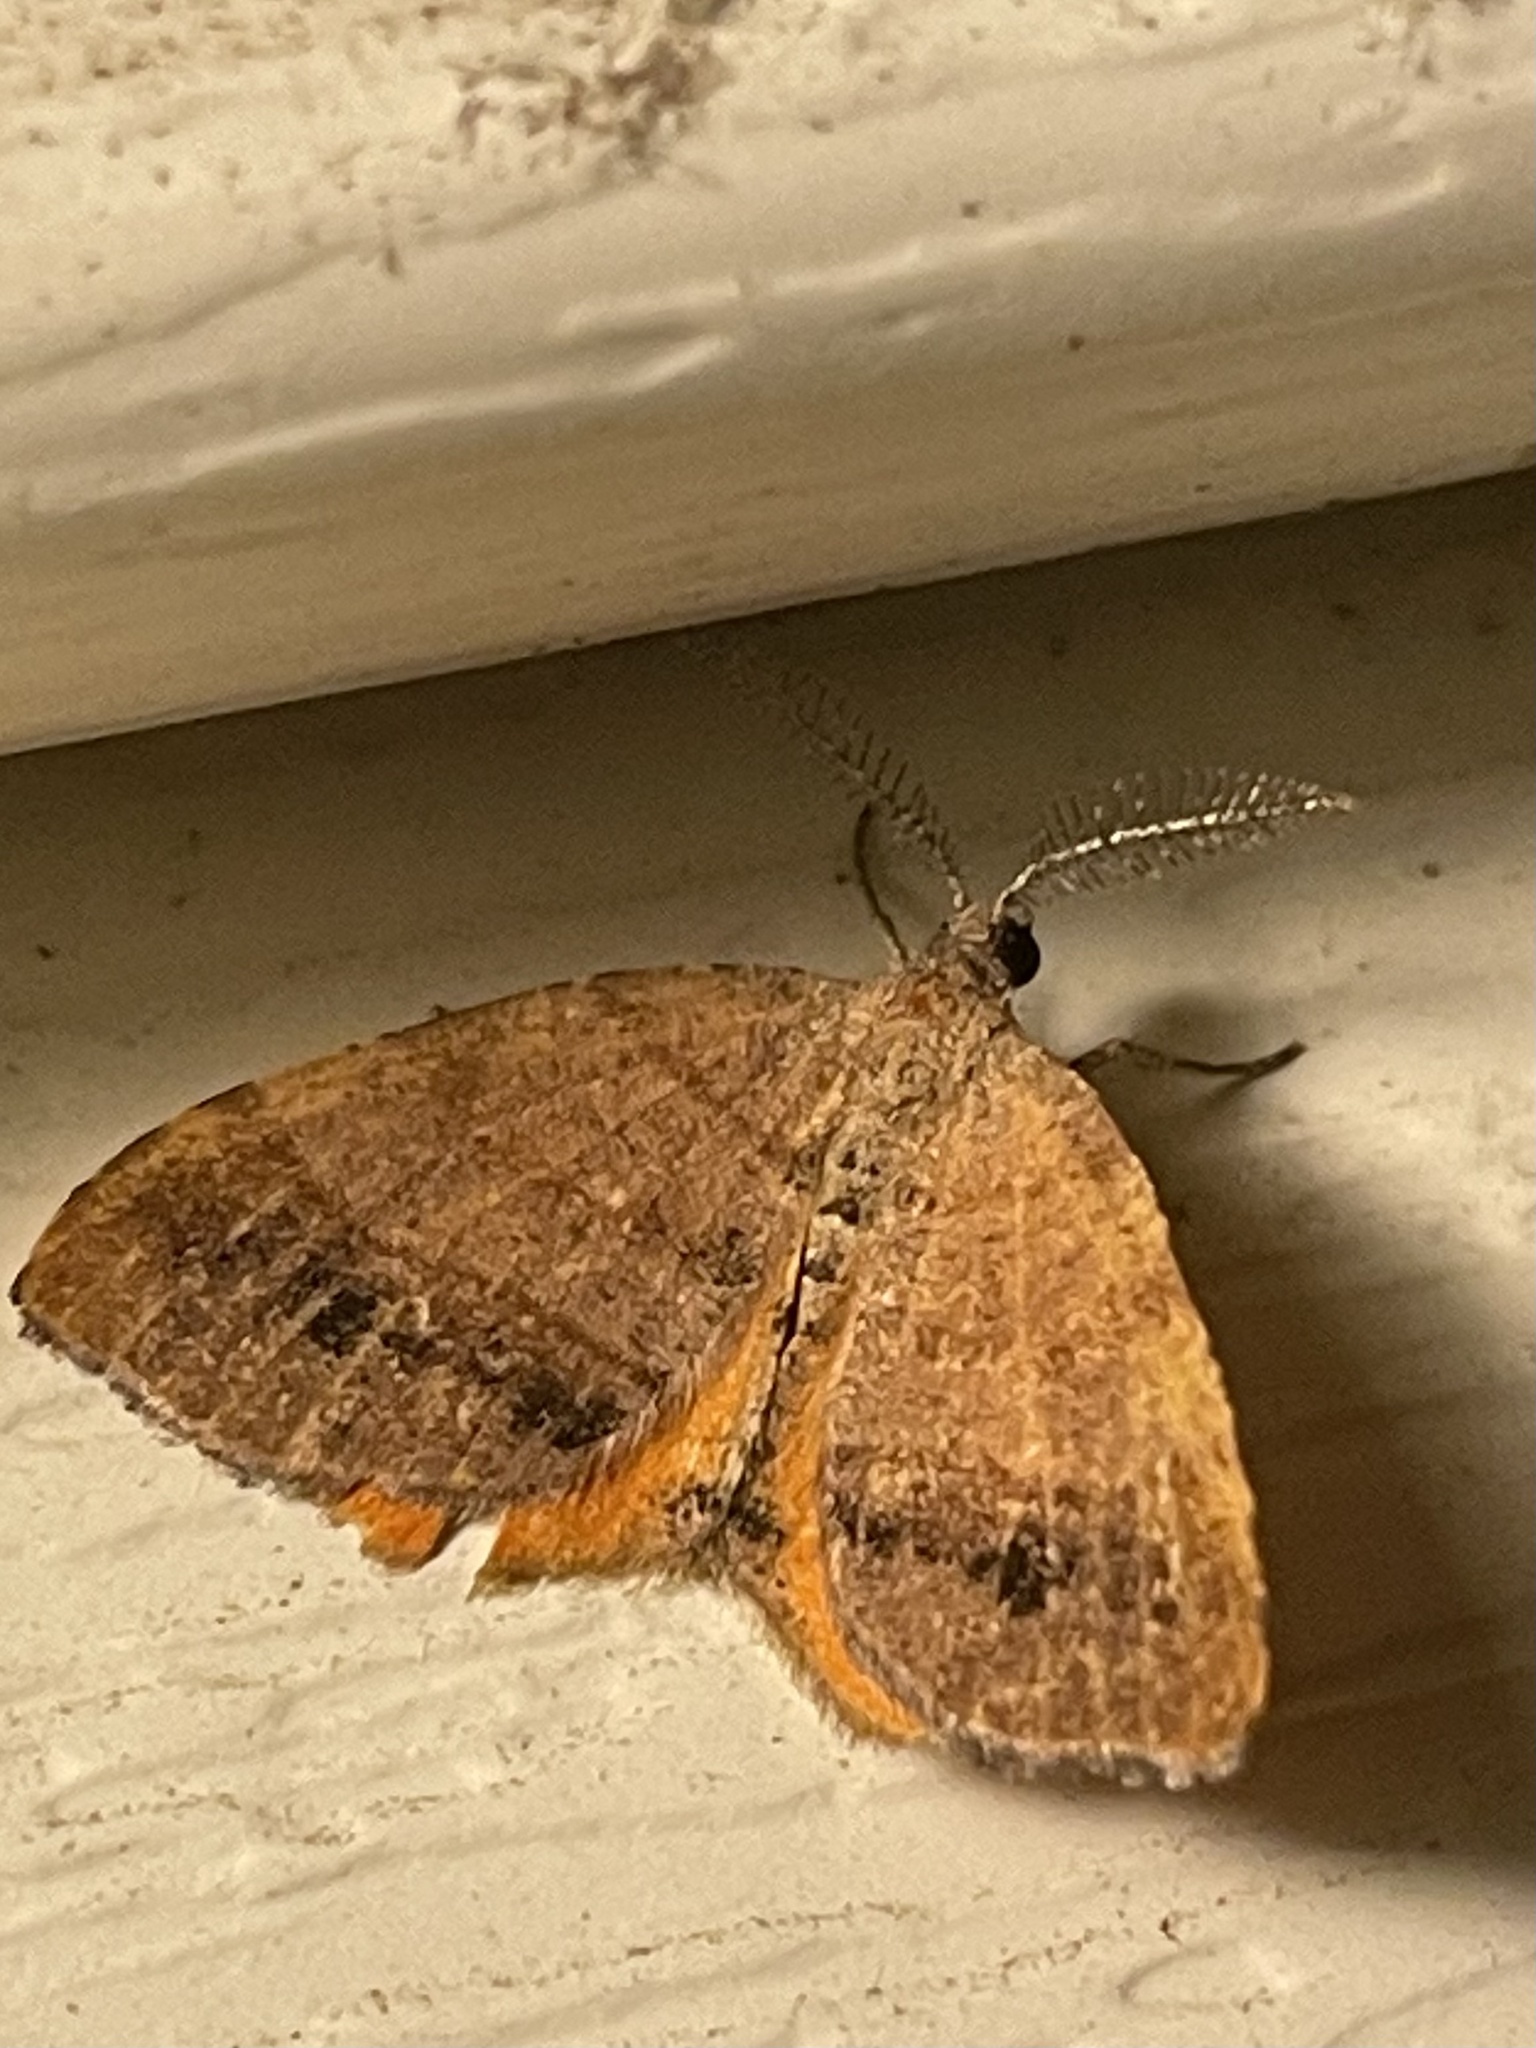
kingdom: Animalia
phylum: Arthropoda
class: Insecta
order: Lepidoptera
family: Geometridae
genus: Mellilla
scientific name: Mellilla xanthometata
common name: Orange wing moth
